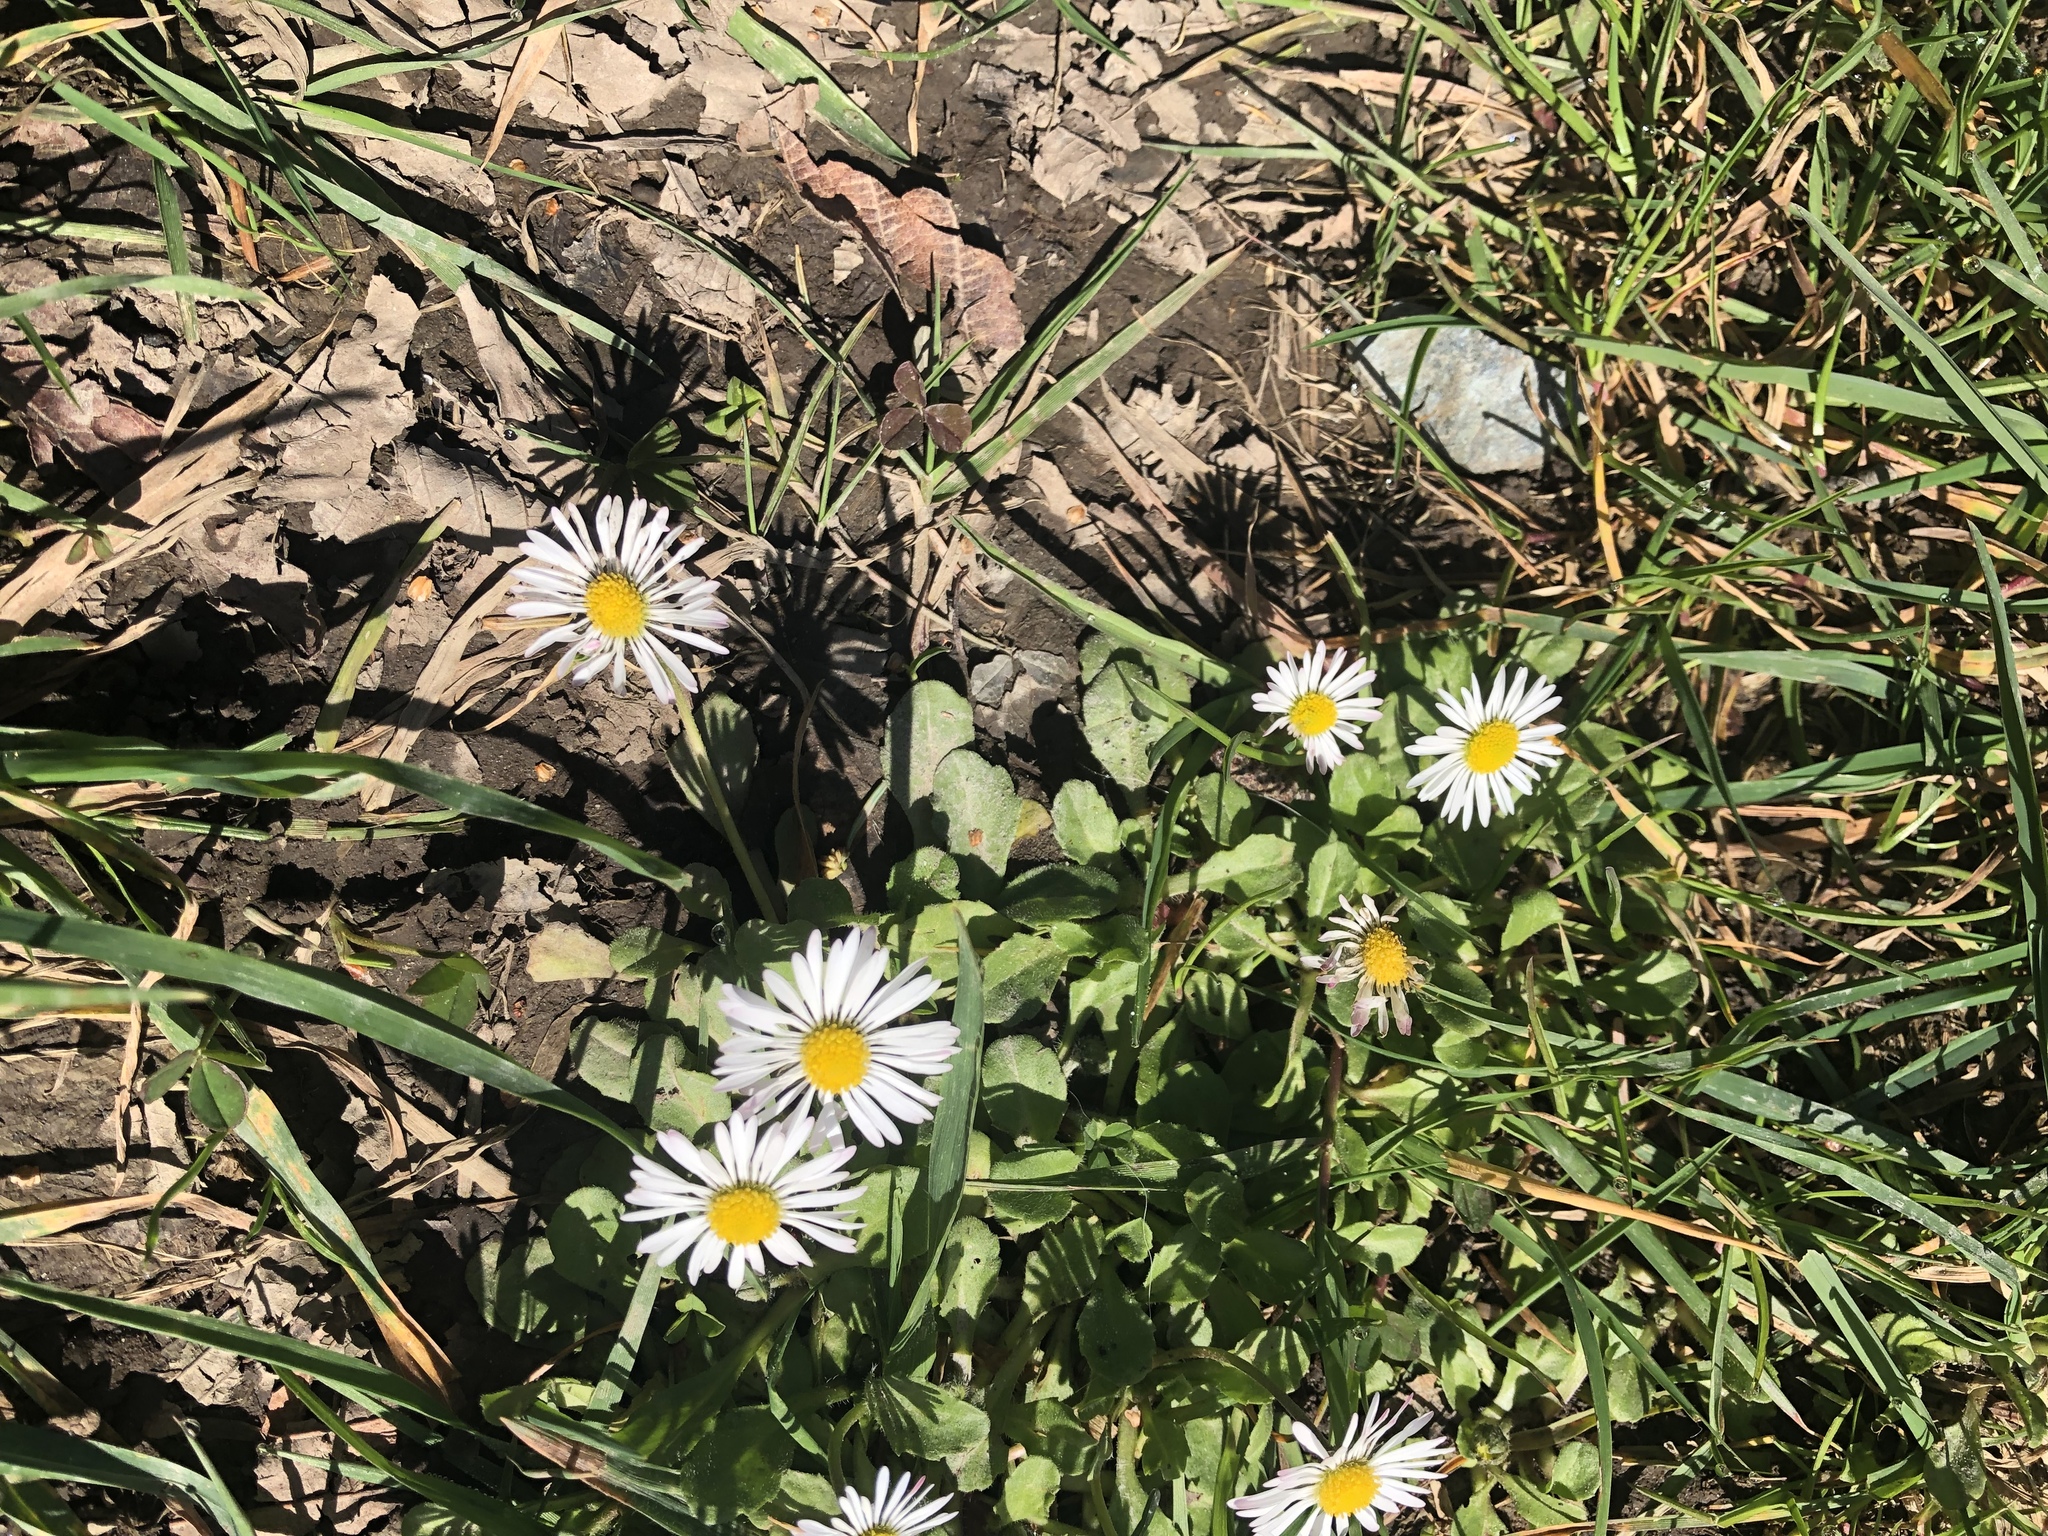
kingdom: Plantae
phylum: Tracheophyta
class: Magnoliopsida
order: Asterales
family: Asteraceae
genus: Bellis
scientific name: Bellis perennis
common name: Lawndaisy
